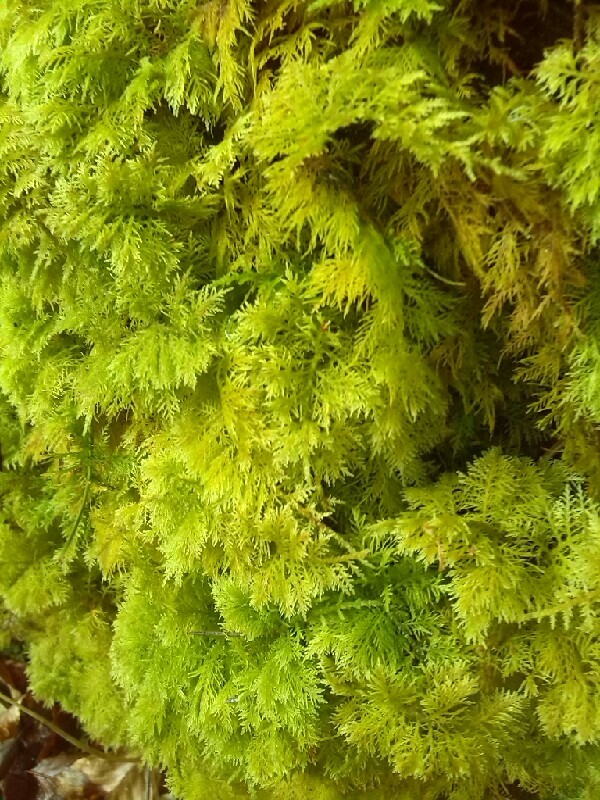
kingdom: Plantae
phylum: Bryophyta
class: Bryopsida
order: Hypnales
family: Thuidiaceae
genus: Thuidium
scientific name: Thuidium tamariscinum
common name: Common tamarisk-moss
